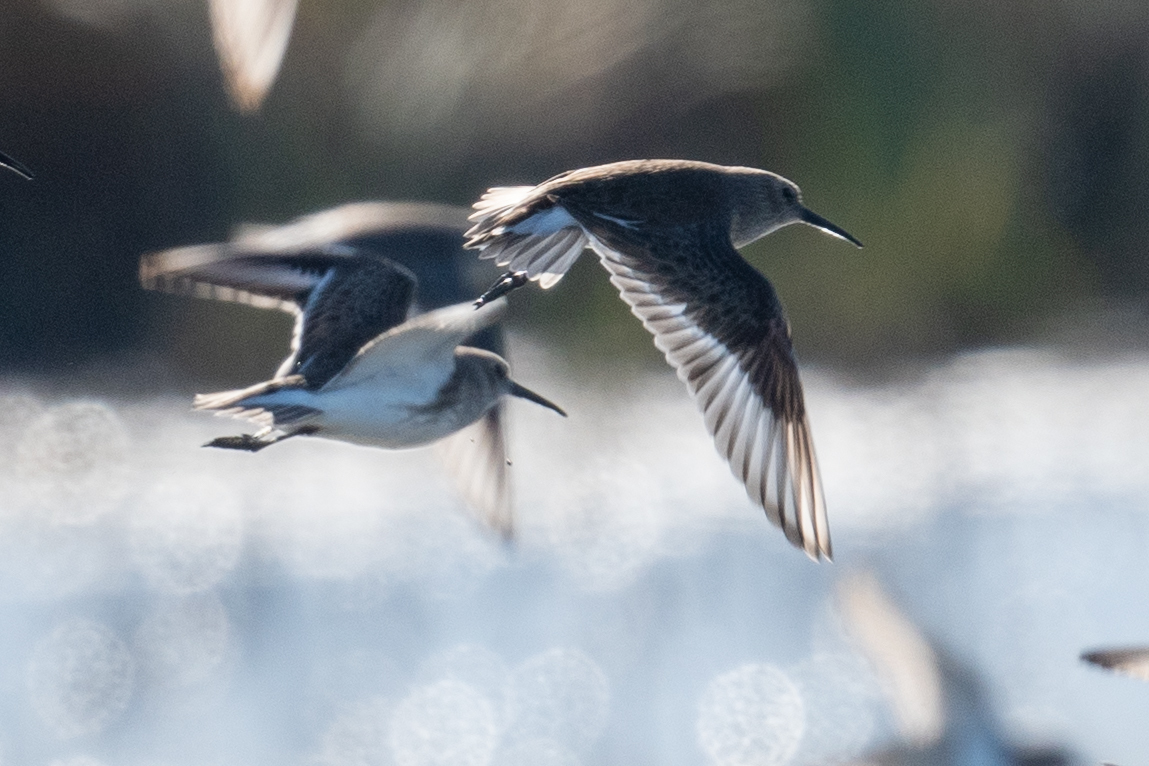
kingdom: Animalia
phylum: Chordata
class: Aves
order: Charadriiformes
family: Scolopacidae
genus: Calidris
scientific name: Calidris alpina
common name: Dunlin
